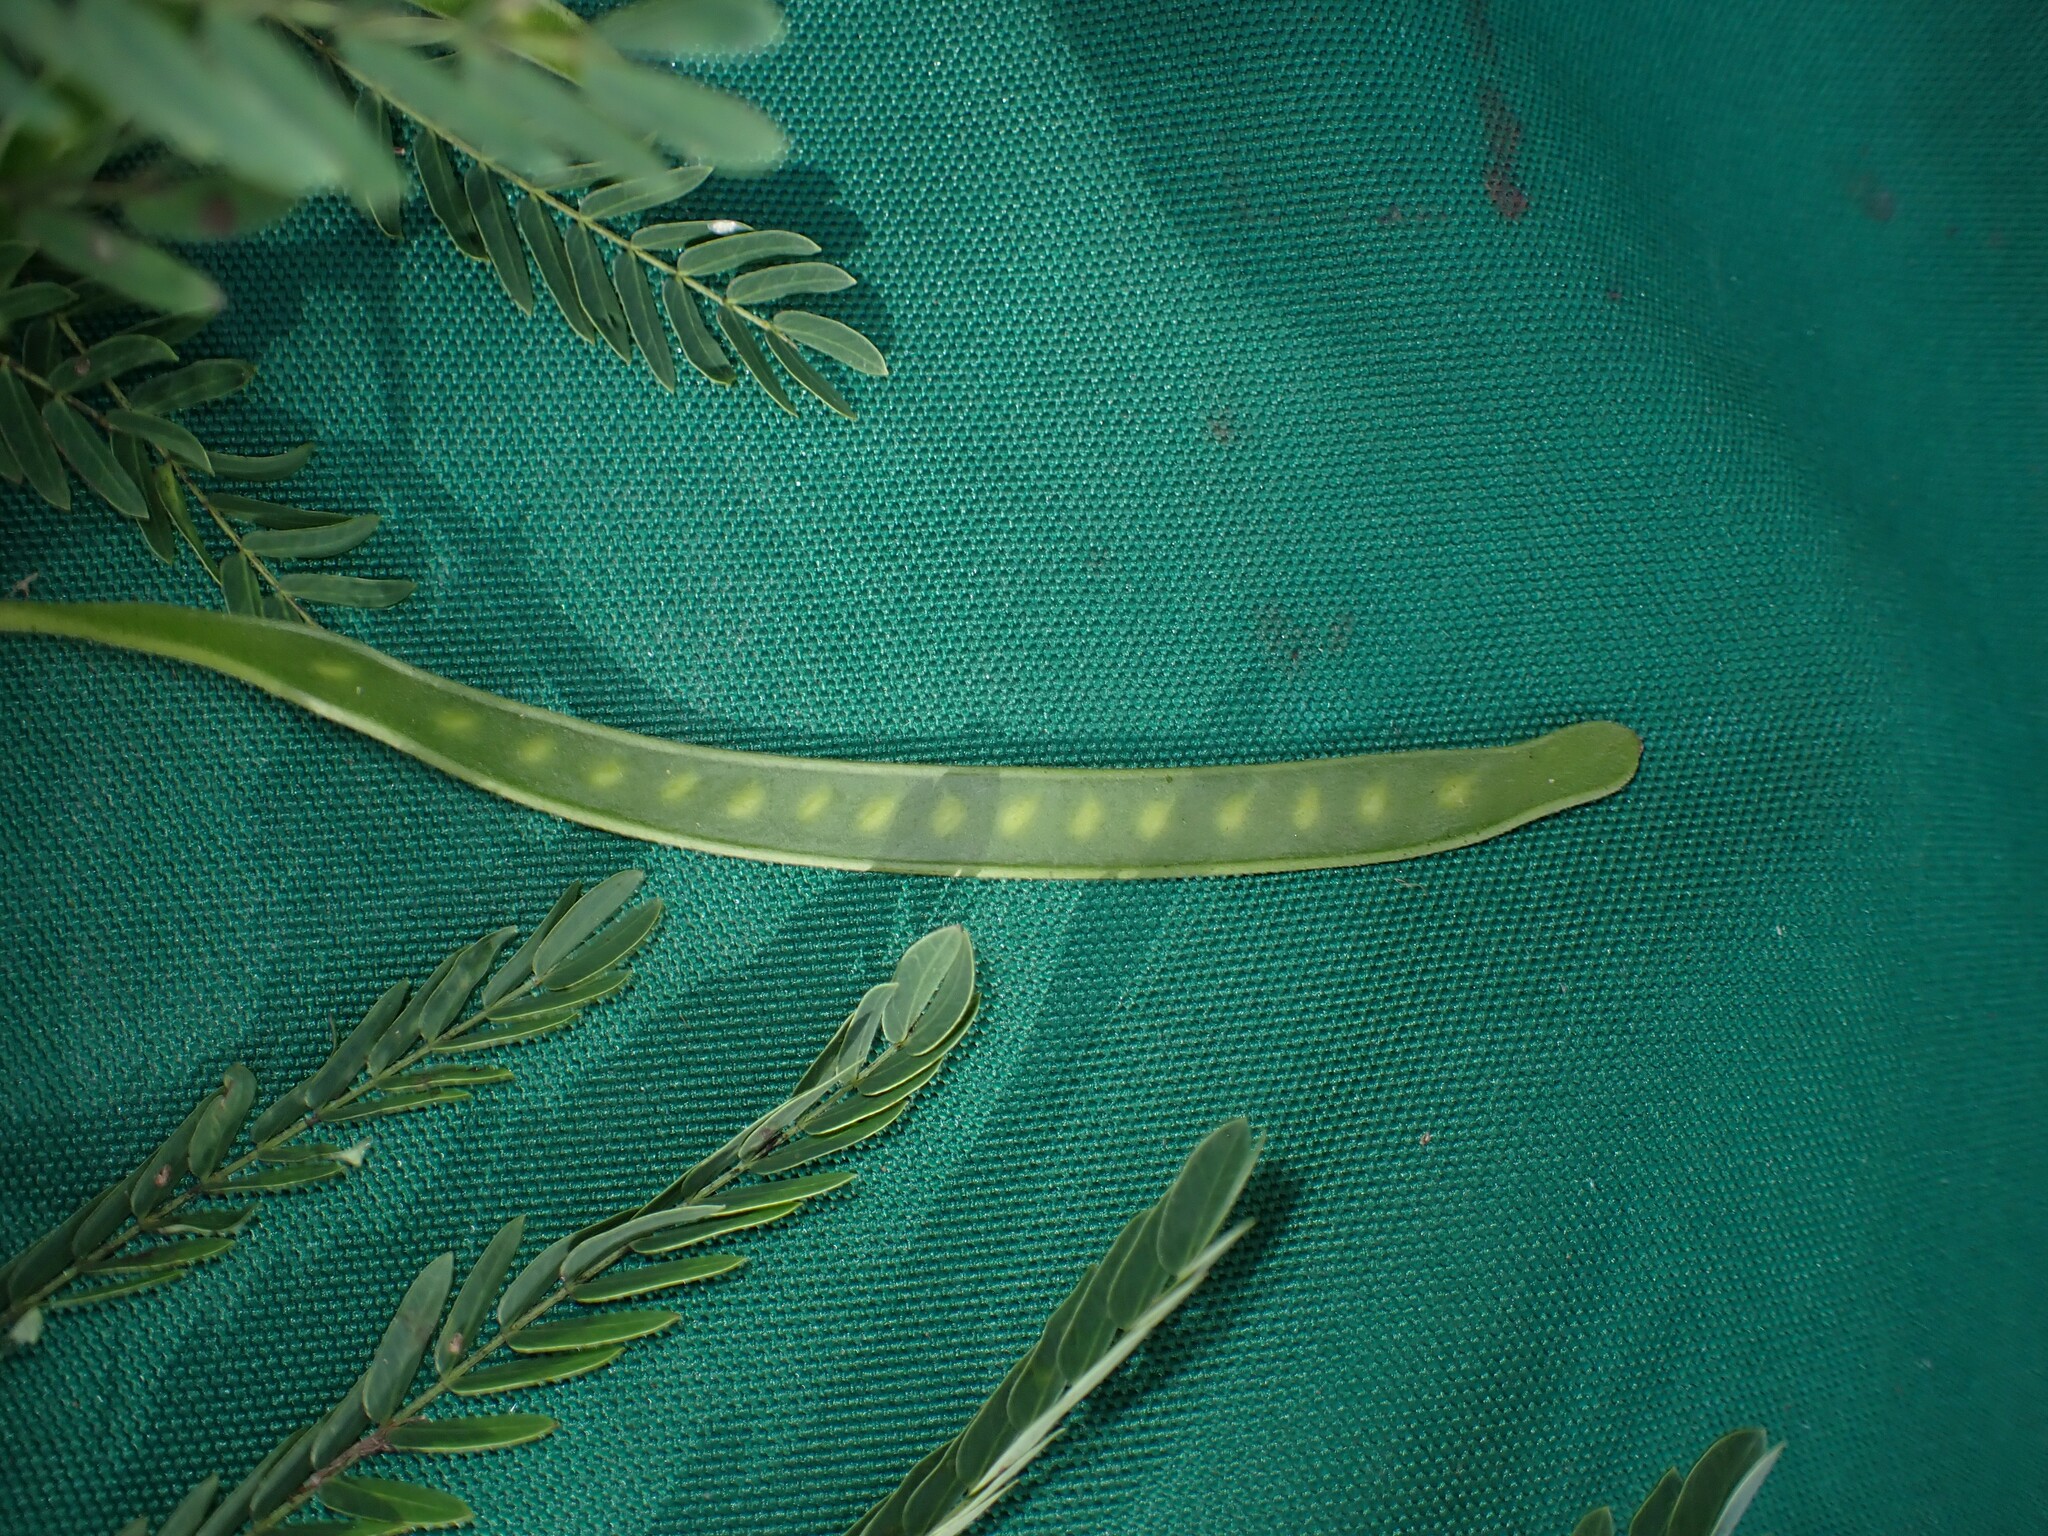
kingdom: Plantae
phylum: Tracheophyta
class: Magnoliopsida
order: Fabales
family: Fabaceae
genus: Leucaena
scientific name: Leucaena leucocephala
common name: White leadtree
